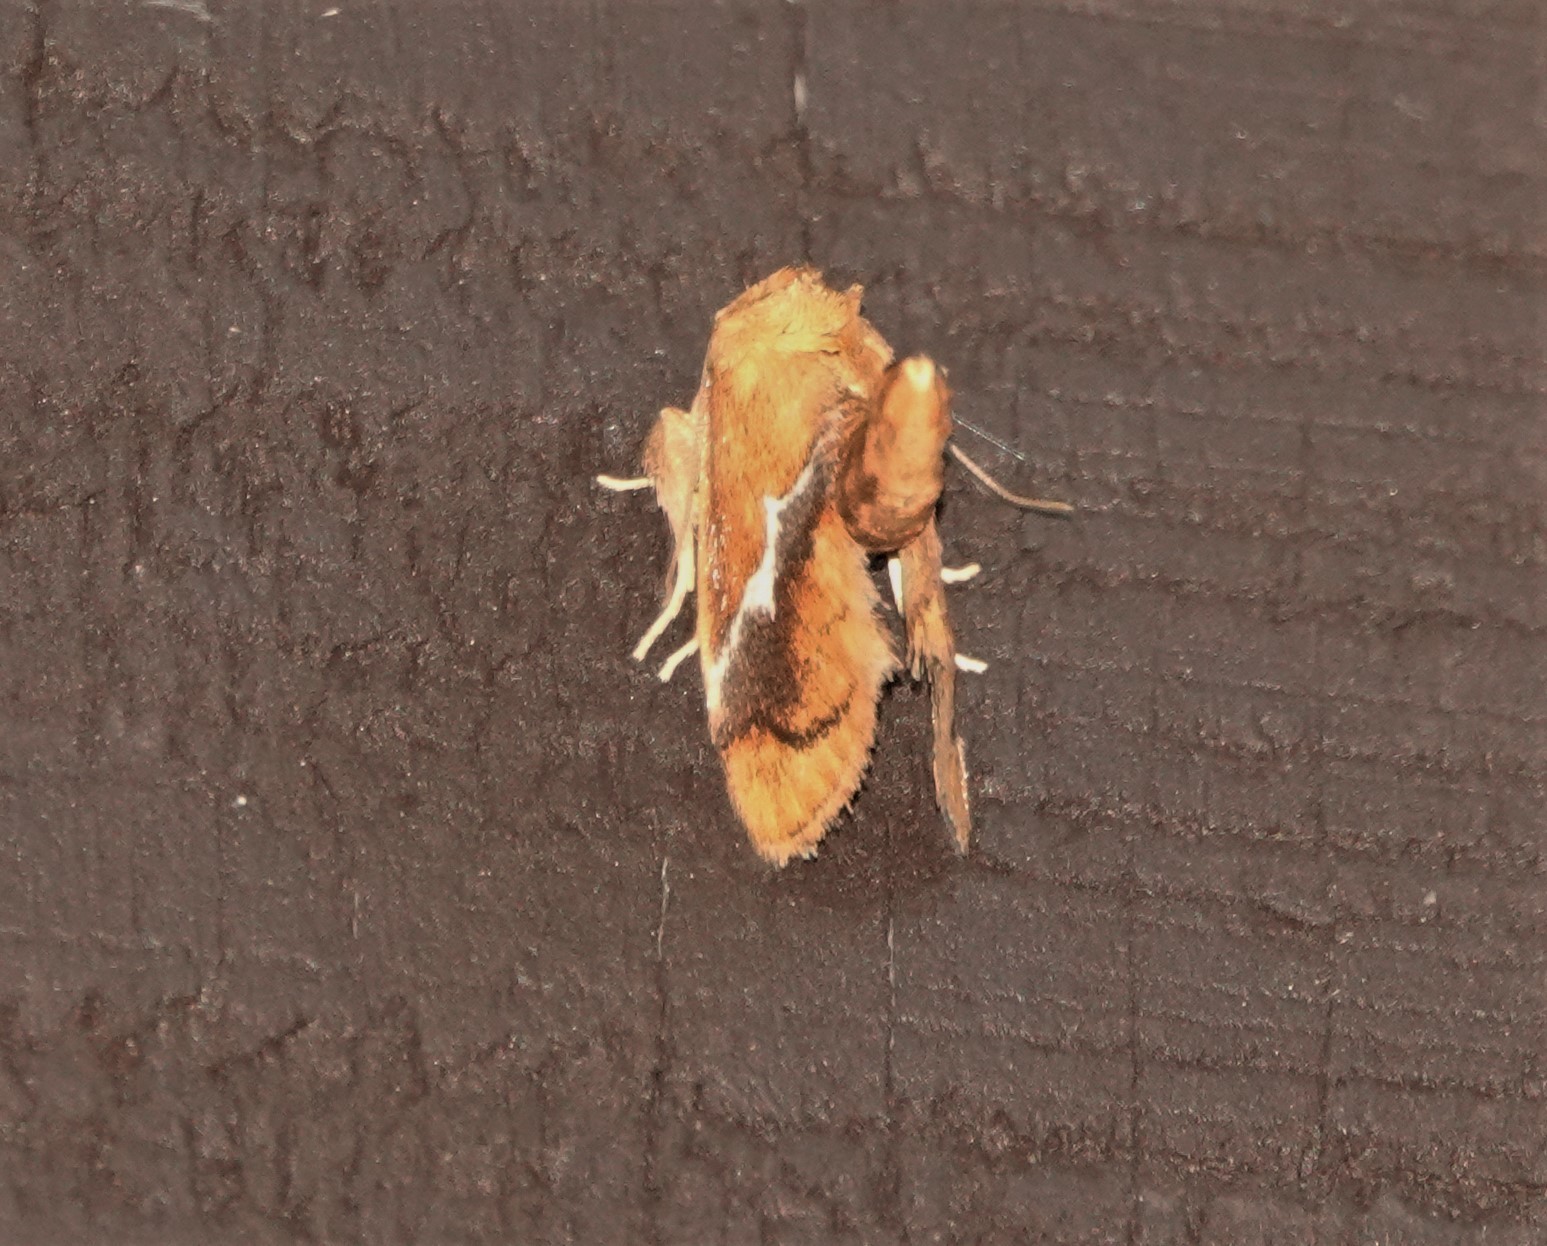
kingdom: Animalia
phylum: Arthropoda
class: Insecta
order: Lepidoptera
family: Limacodidae
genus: Lithacodes
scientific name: Lithacodes fasciola
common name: Yellow-shouldered slug moth
